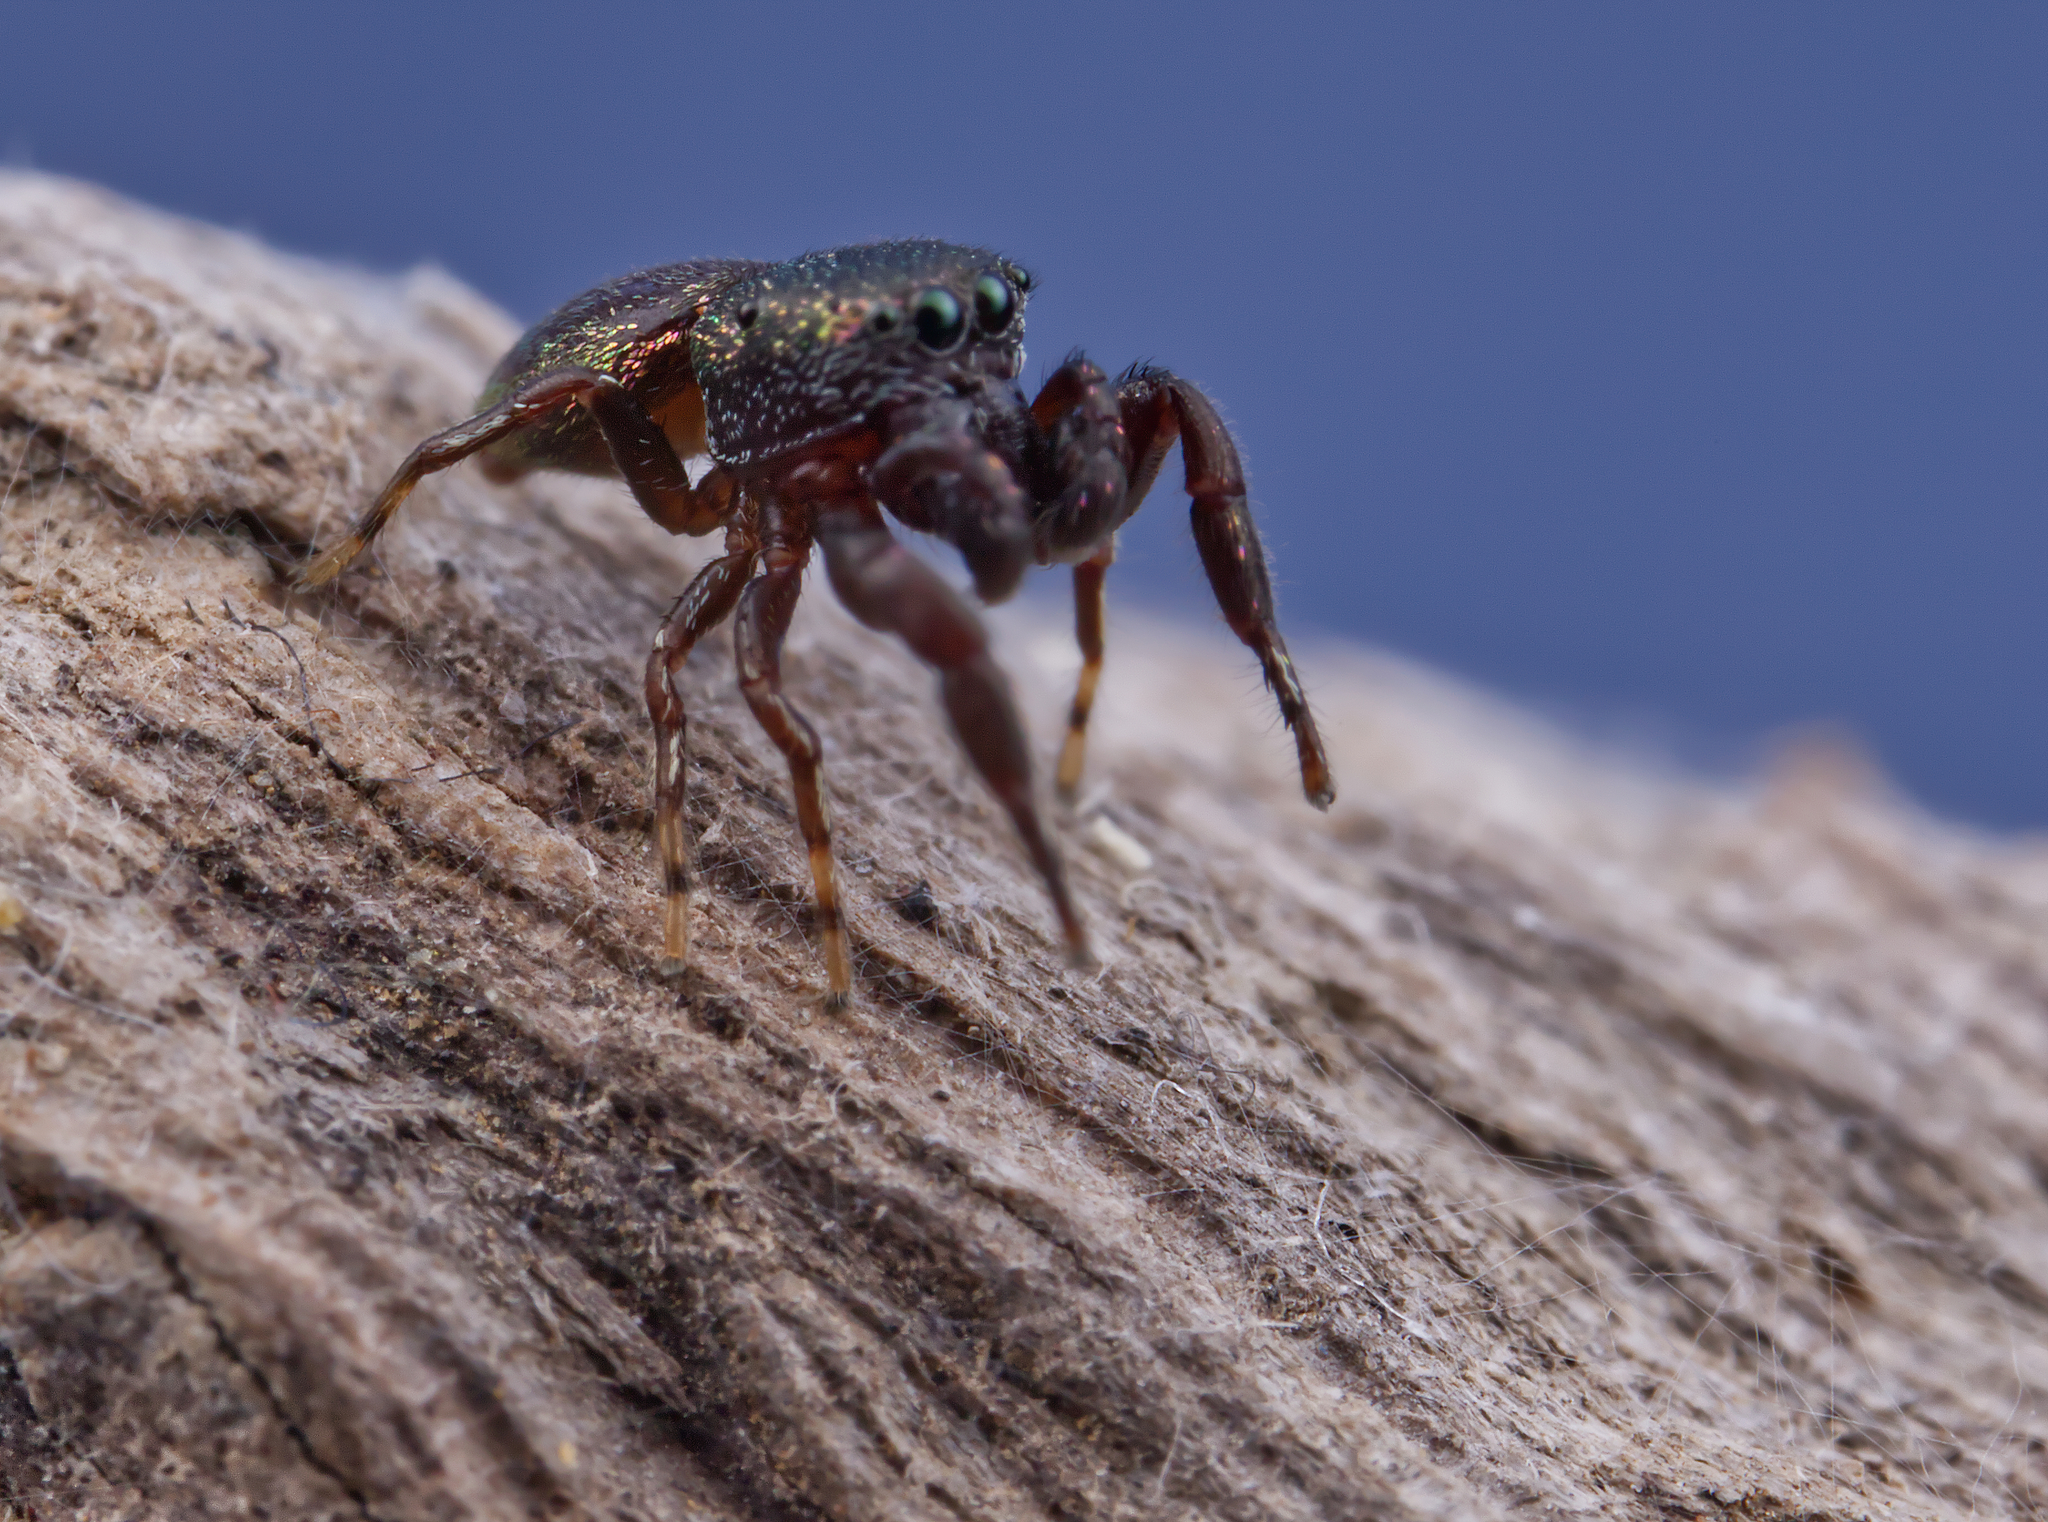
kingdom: Animalia
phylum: Arthropoda
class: Arachnida
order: Araneae
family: Salticidae
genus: Sassacus
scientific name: Sassacus cyaneus
